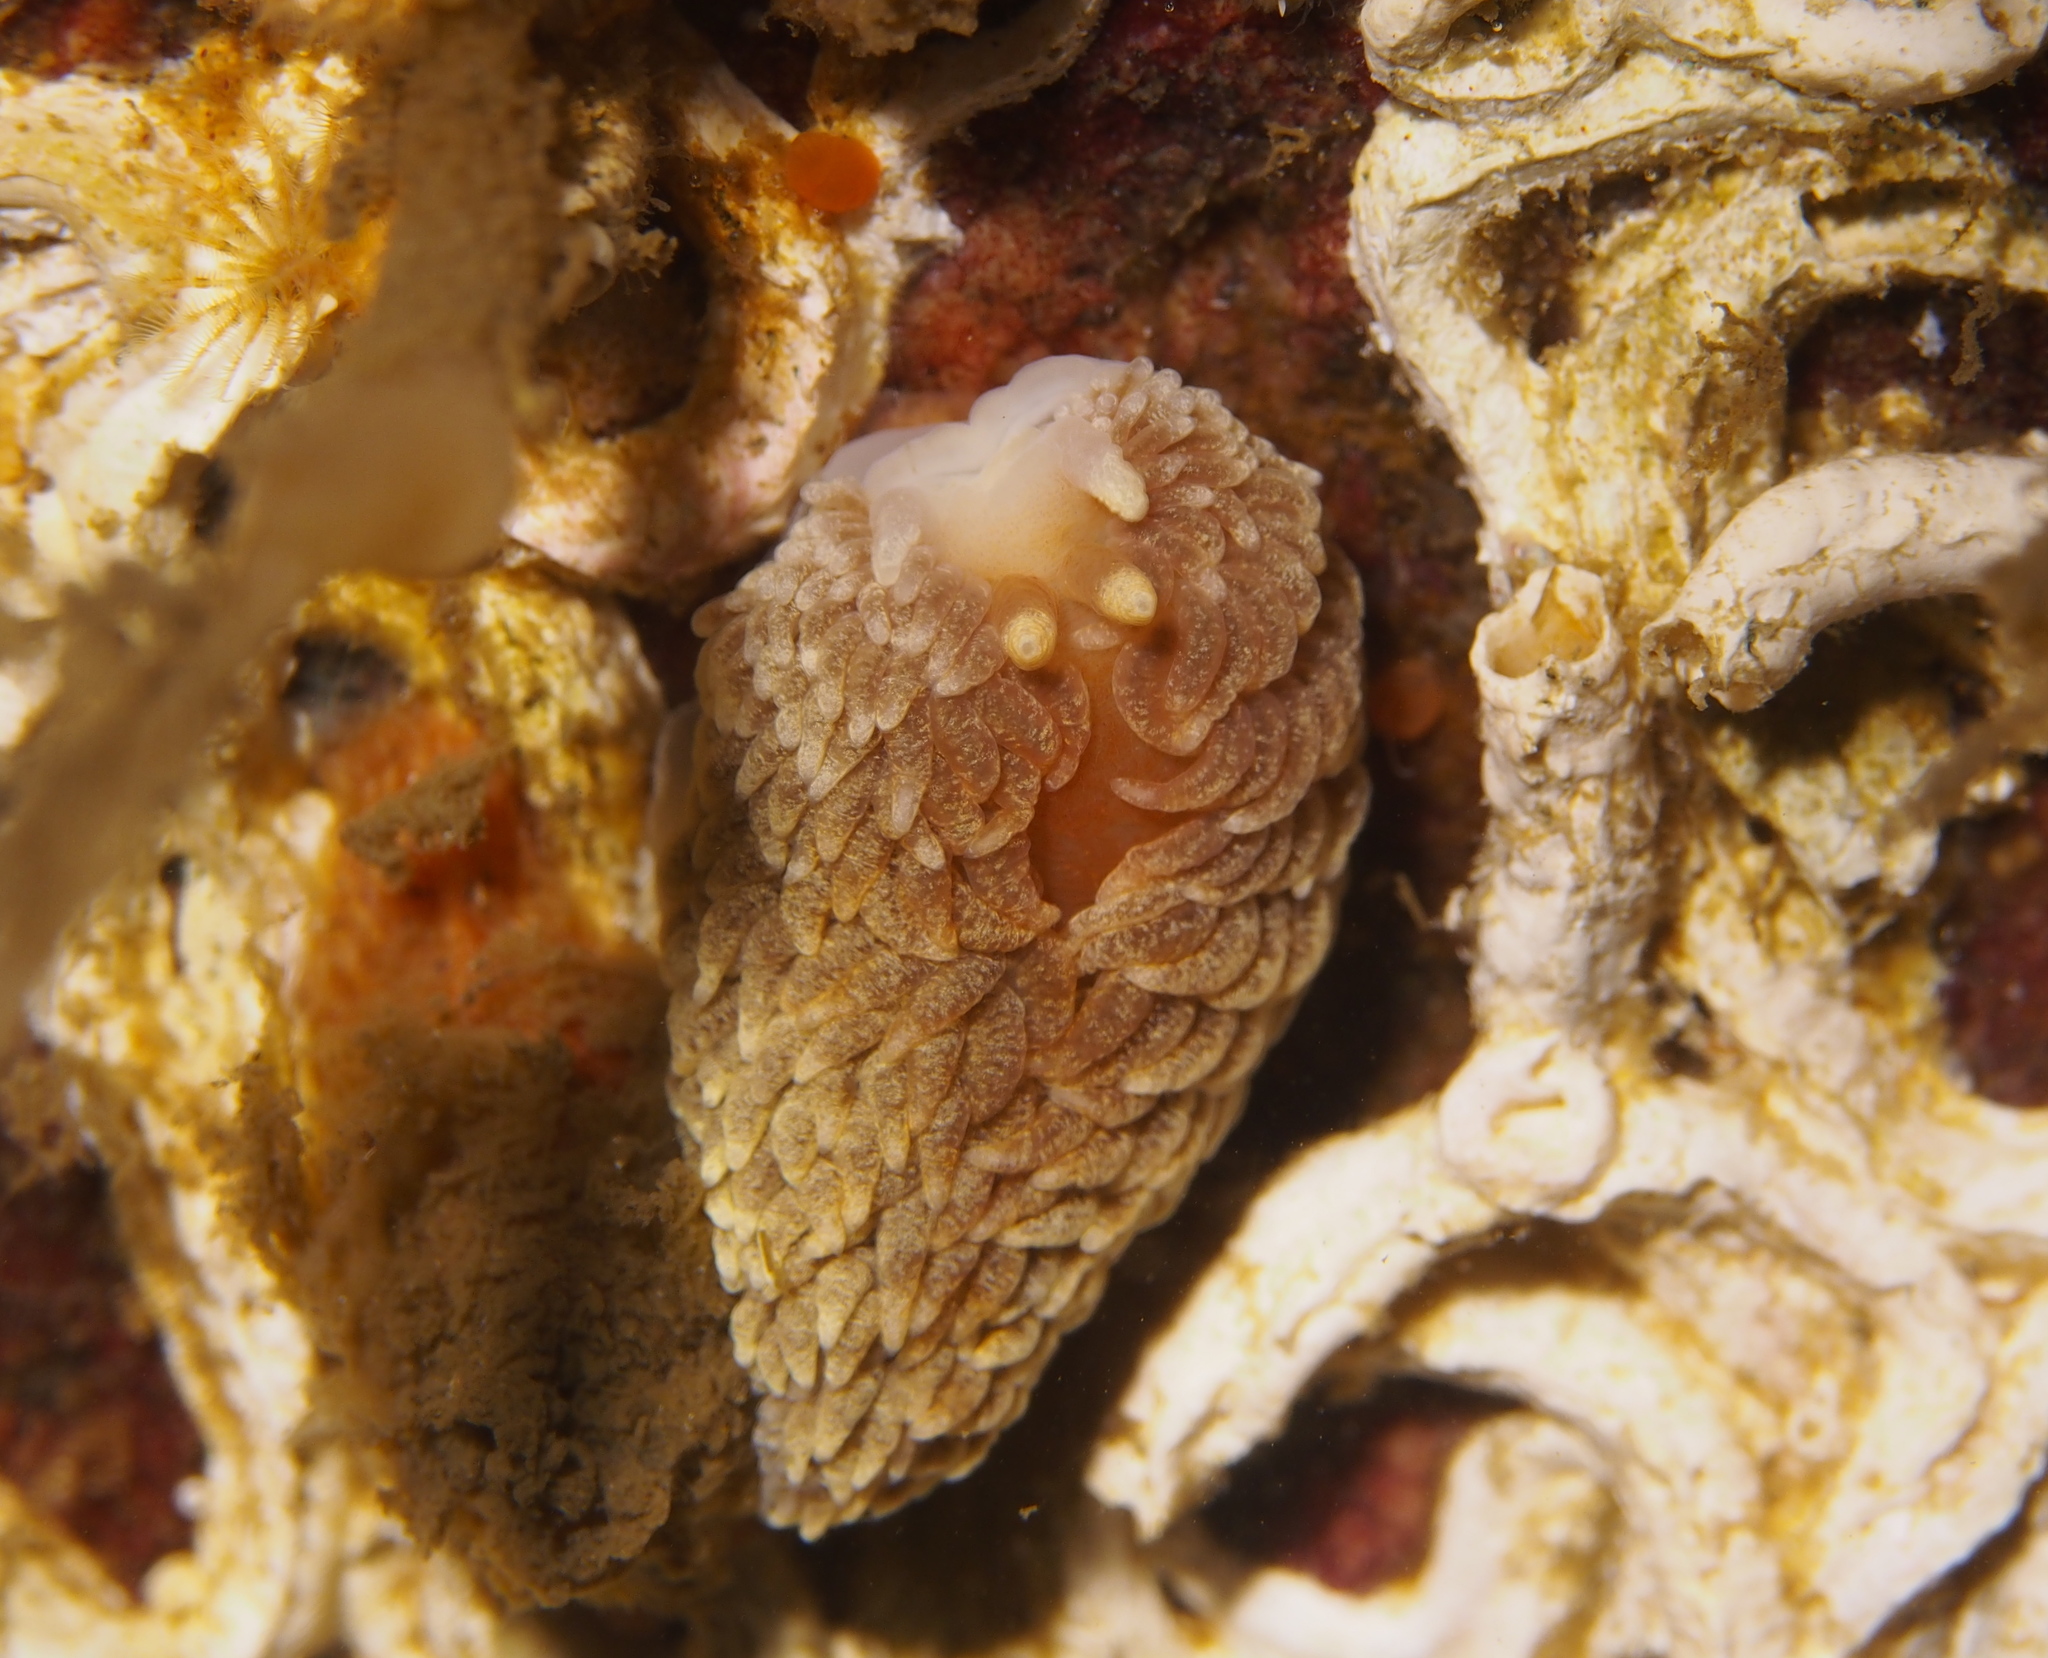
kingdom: Animalia
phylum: Mollusca
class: Gastropoda
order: Nudibranchia
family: Aeolidiidae
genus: Aeolidiella
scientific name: Aeolidiella glauca
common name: Orange-brown aeolid
